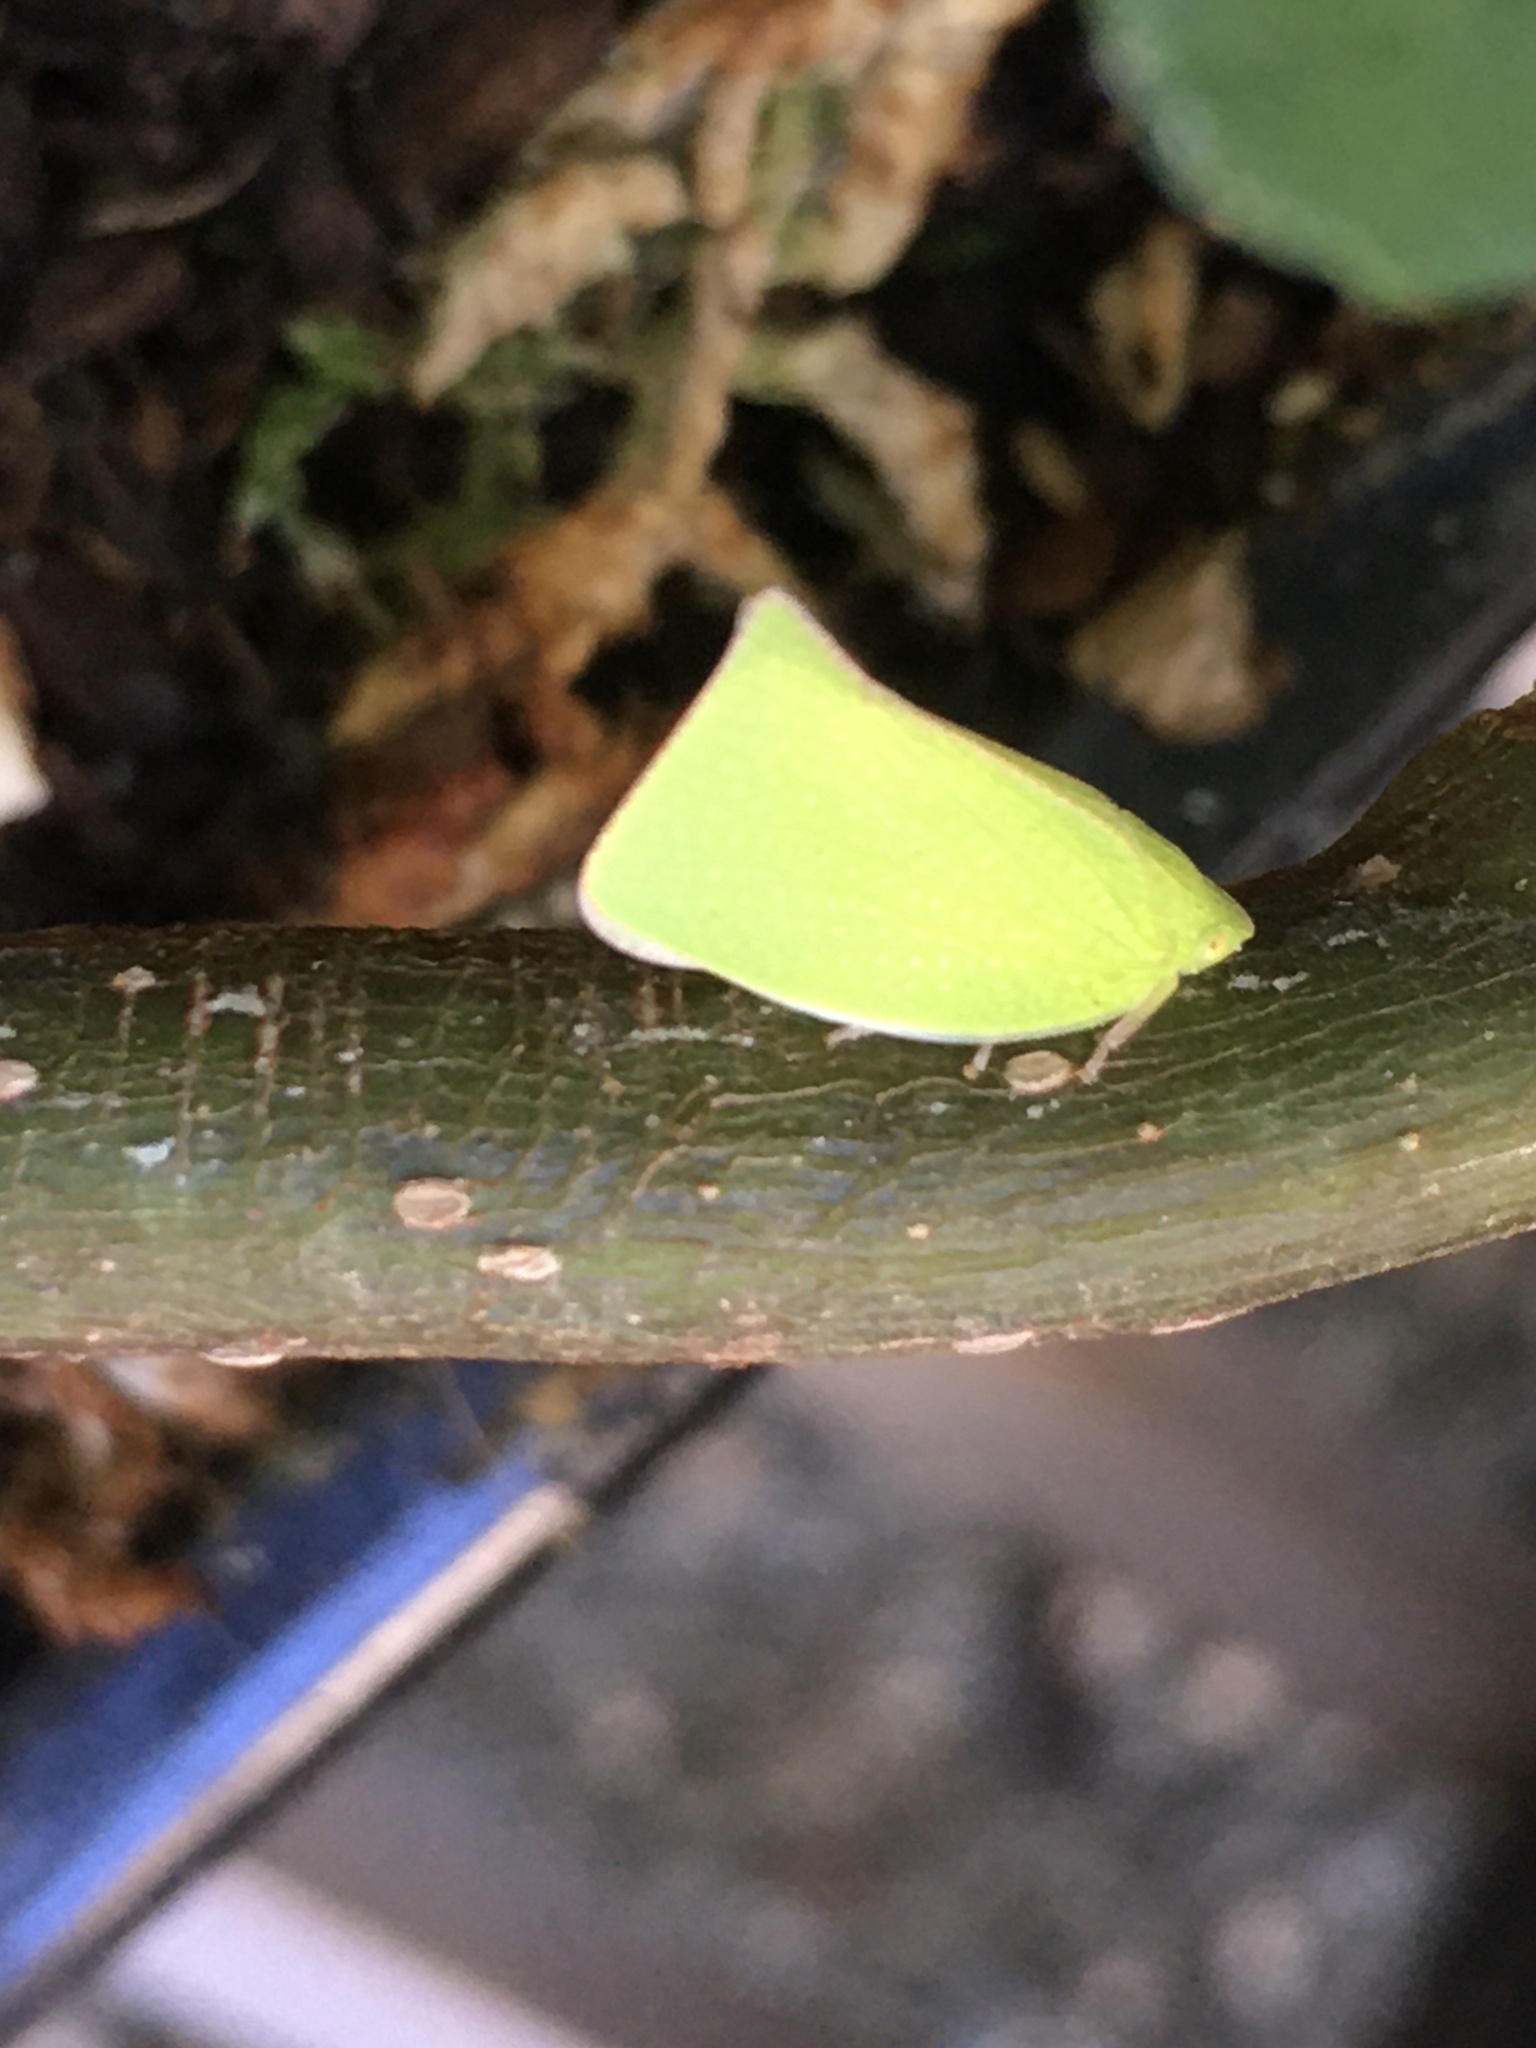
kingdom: Animalia
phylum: Arthropoda
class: Insecta
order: Hemiptera
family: Flatidae
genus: Siphanta
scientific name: Siphanta acuta
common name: Torpedo bug
